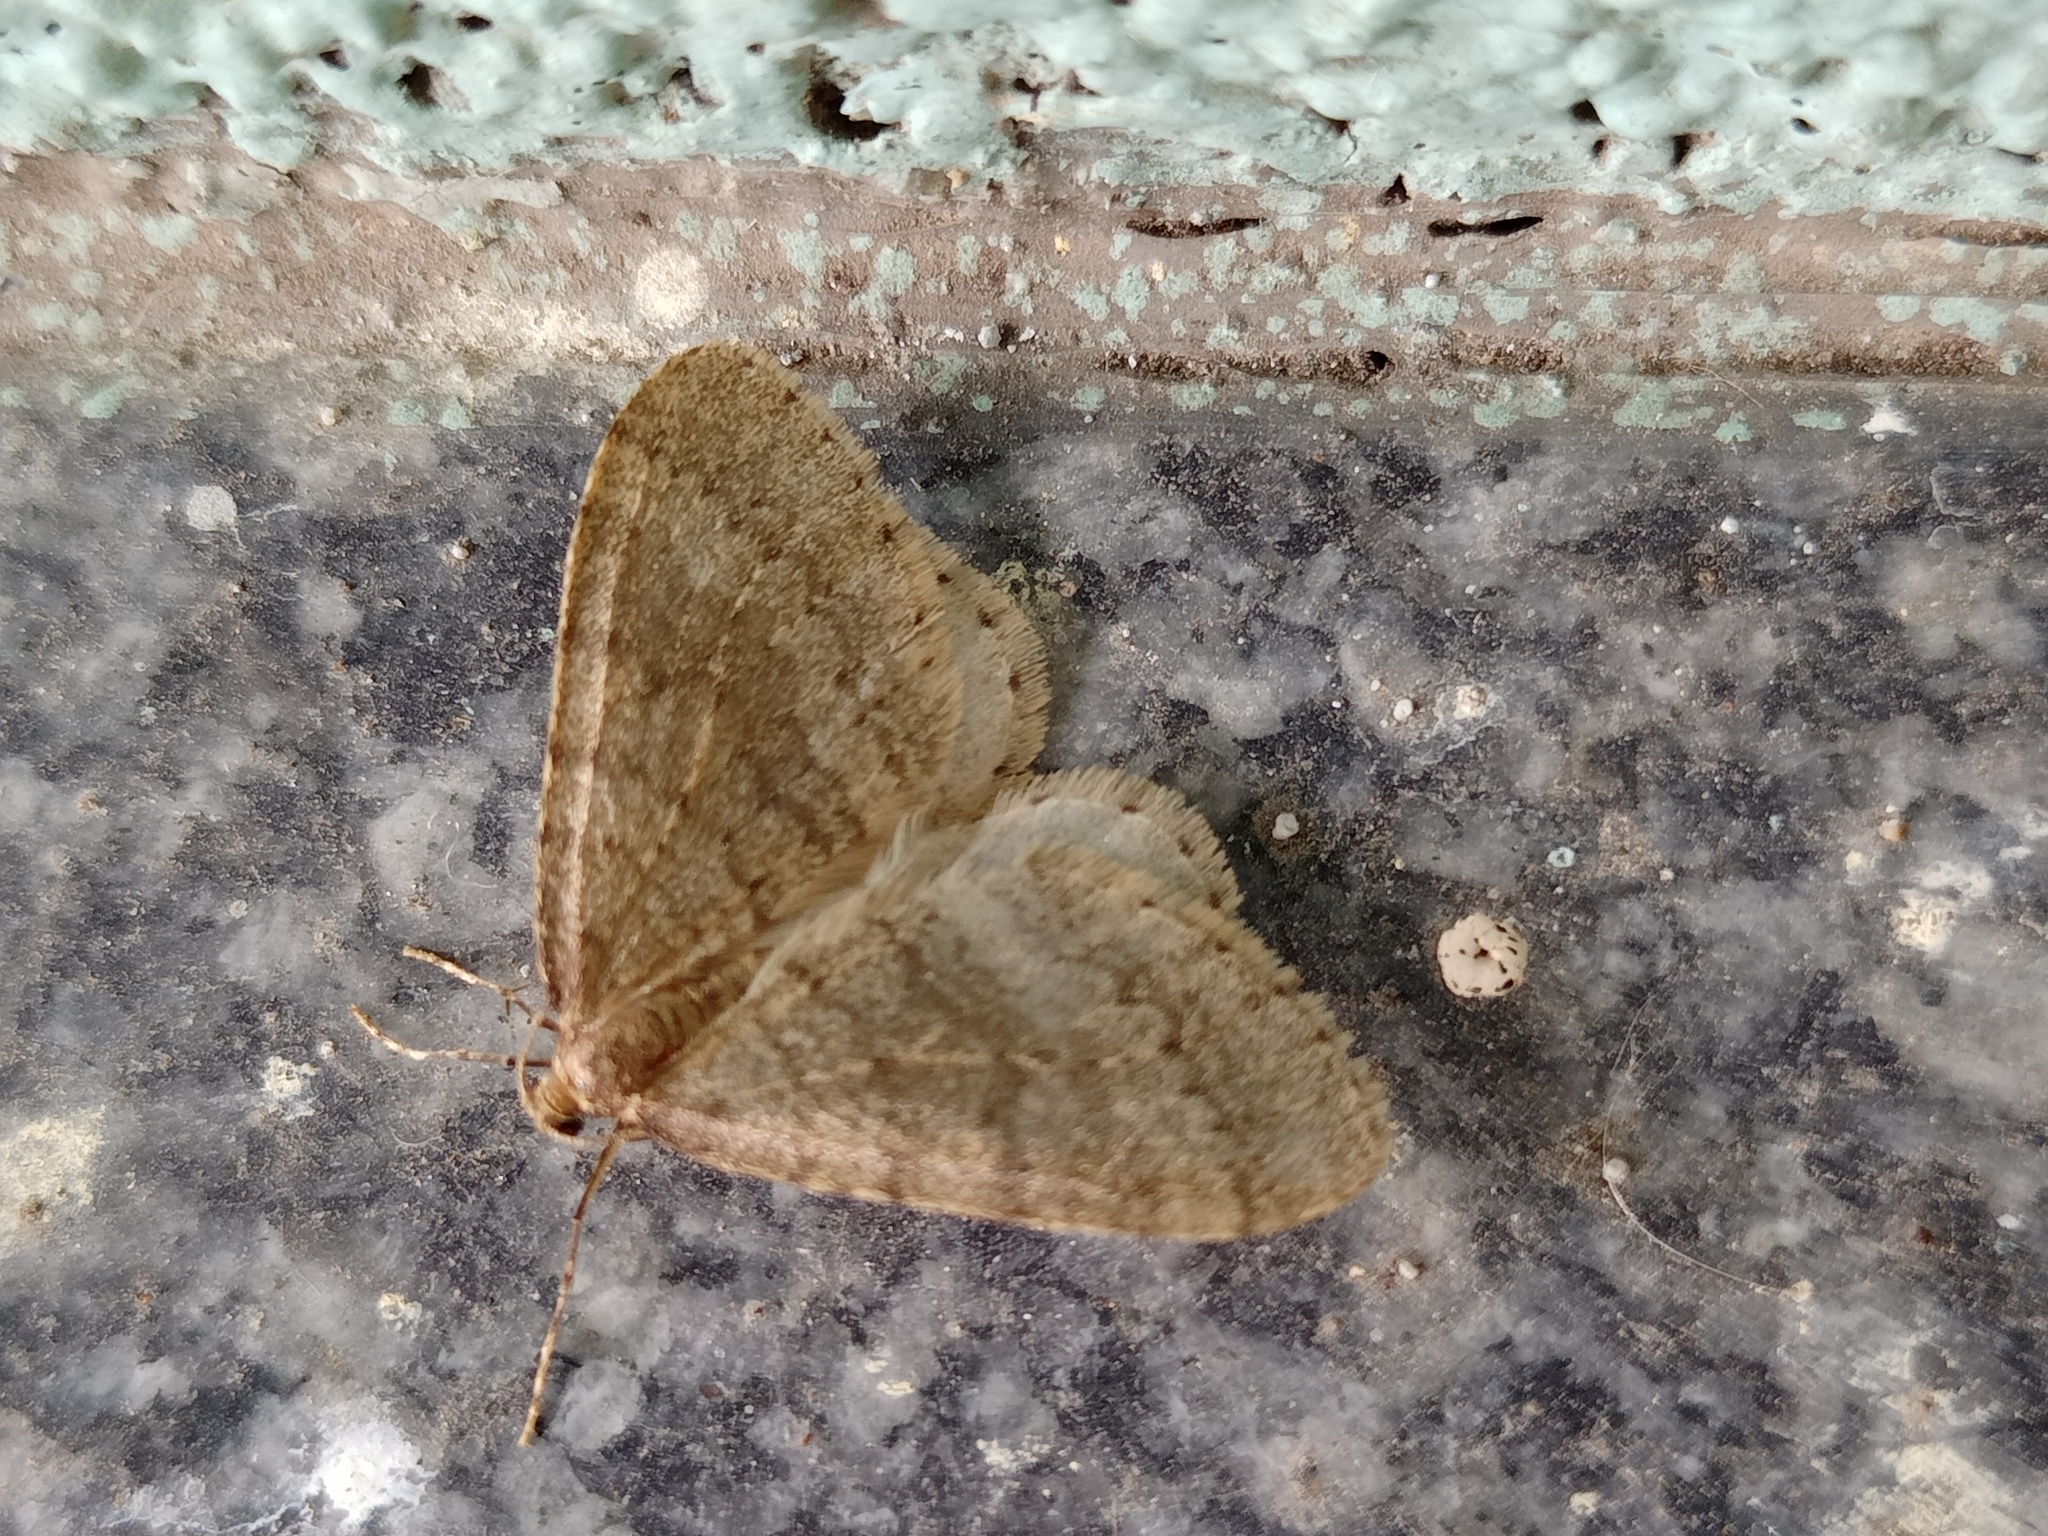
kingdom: Animalia
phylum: Arthropoda
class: Insecta
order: Lepidoptera
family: Geometridae
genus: Operophtera
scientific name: Operophtera brumata
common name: Winter moth
